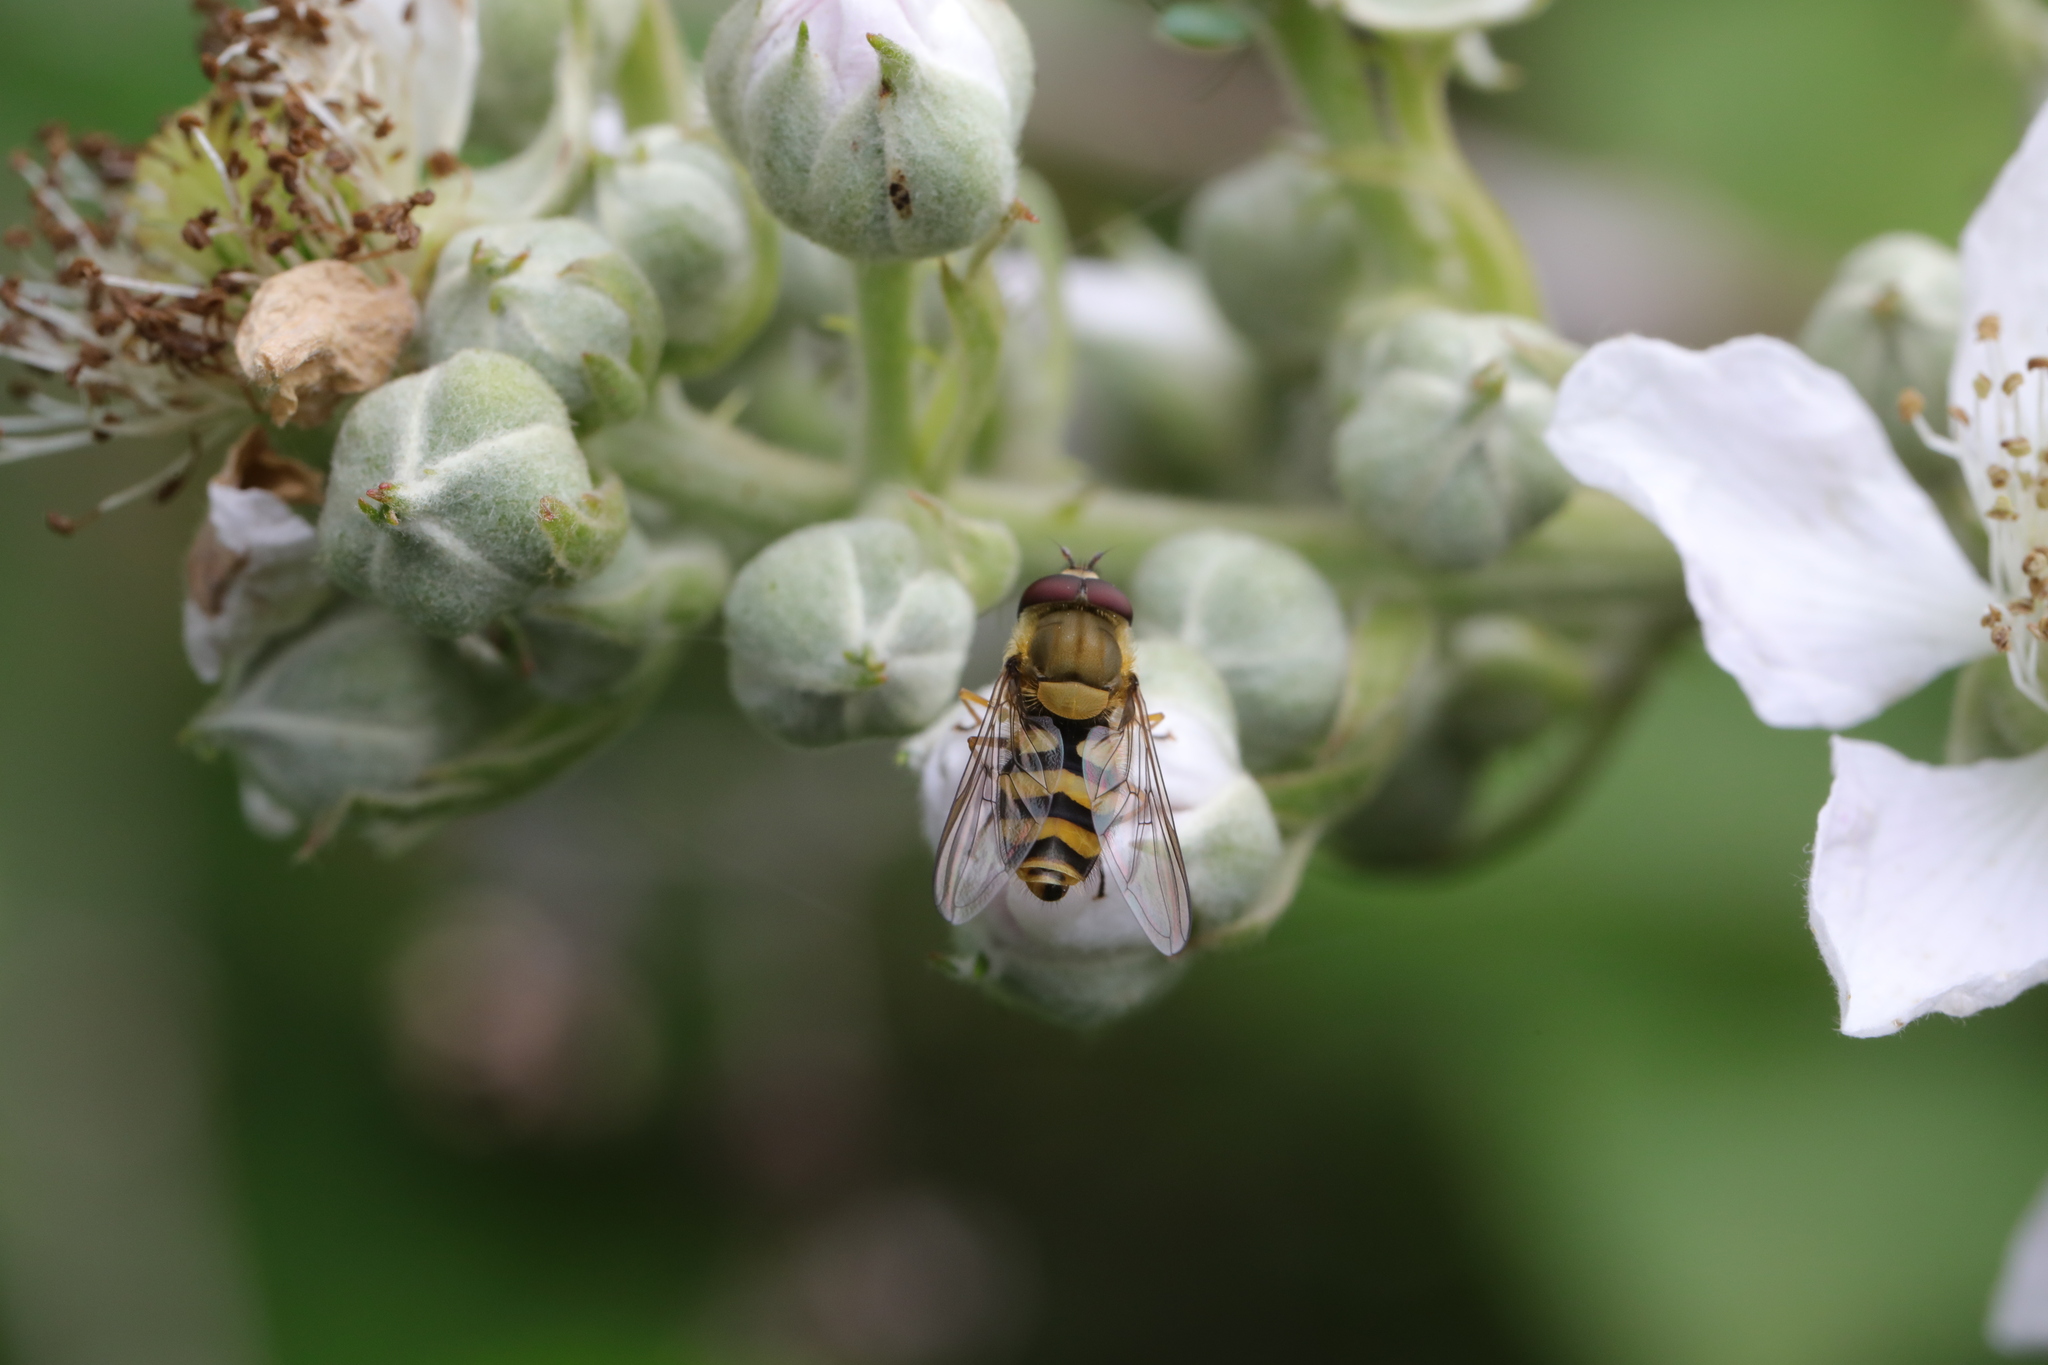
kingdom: Animalia
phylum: Arthropoda
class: Insecta
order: Diptera
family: Syrphidae
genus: Syrphus
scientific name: Syrphus
